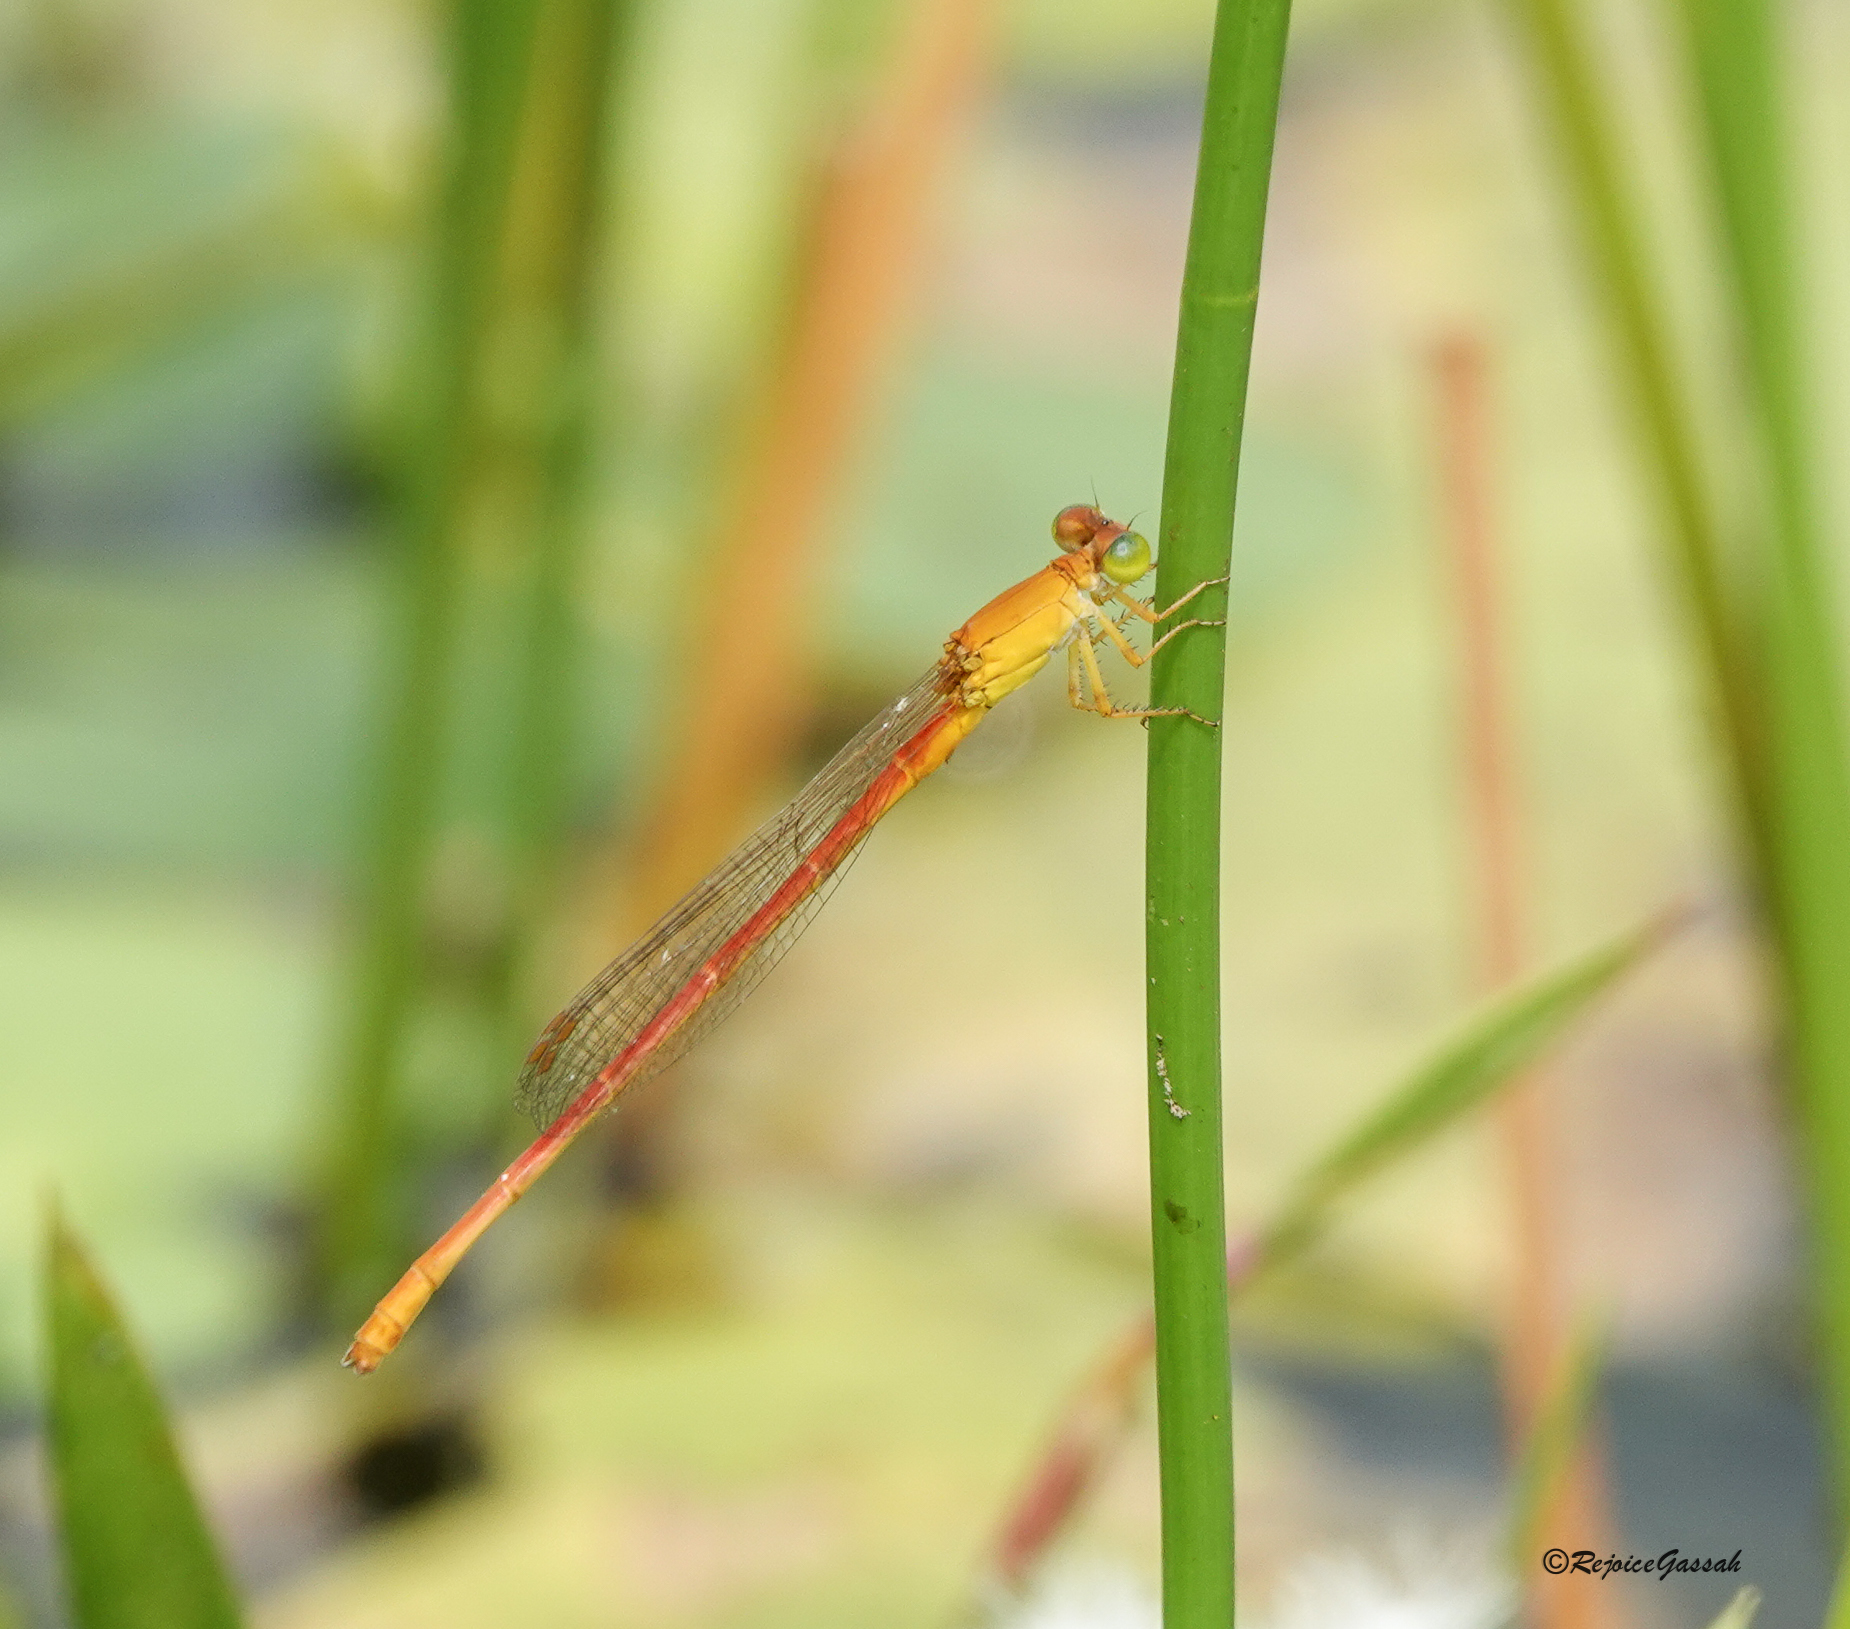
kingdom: Animalia
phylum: Arthropoda
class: Insecta
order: Odonata
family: Coenagrionidae
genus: Ceriagrion
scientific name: Ceriagrion rubiae
